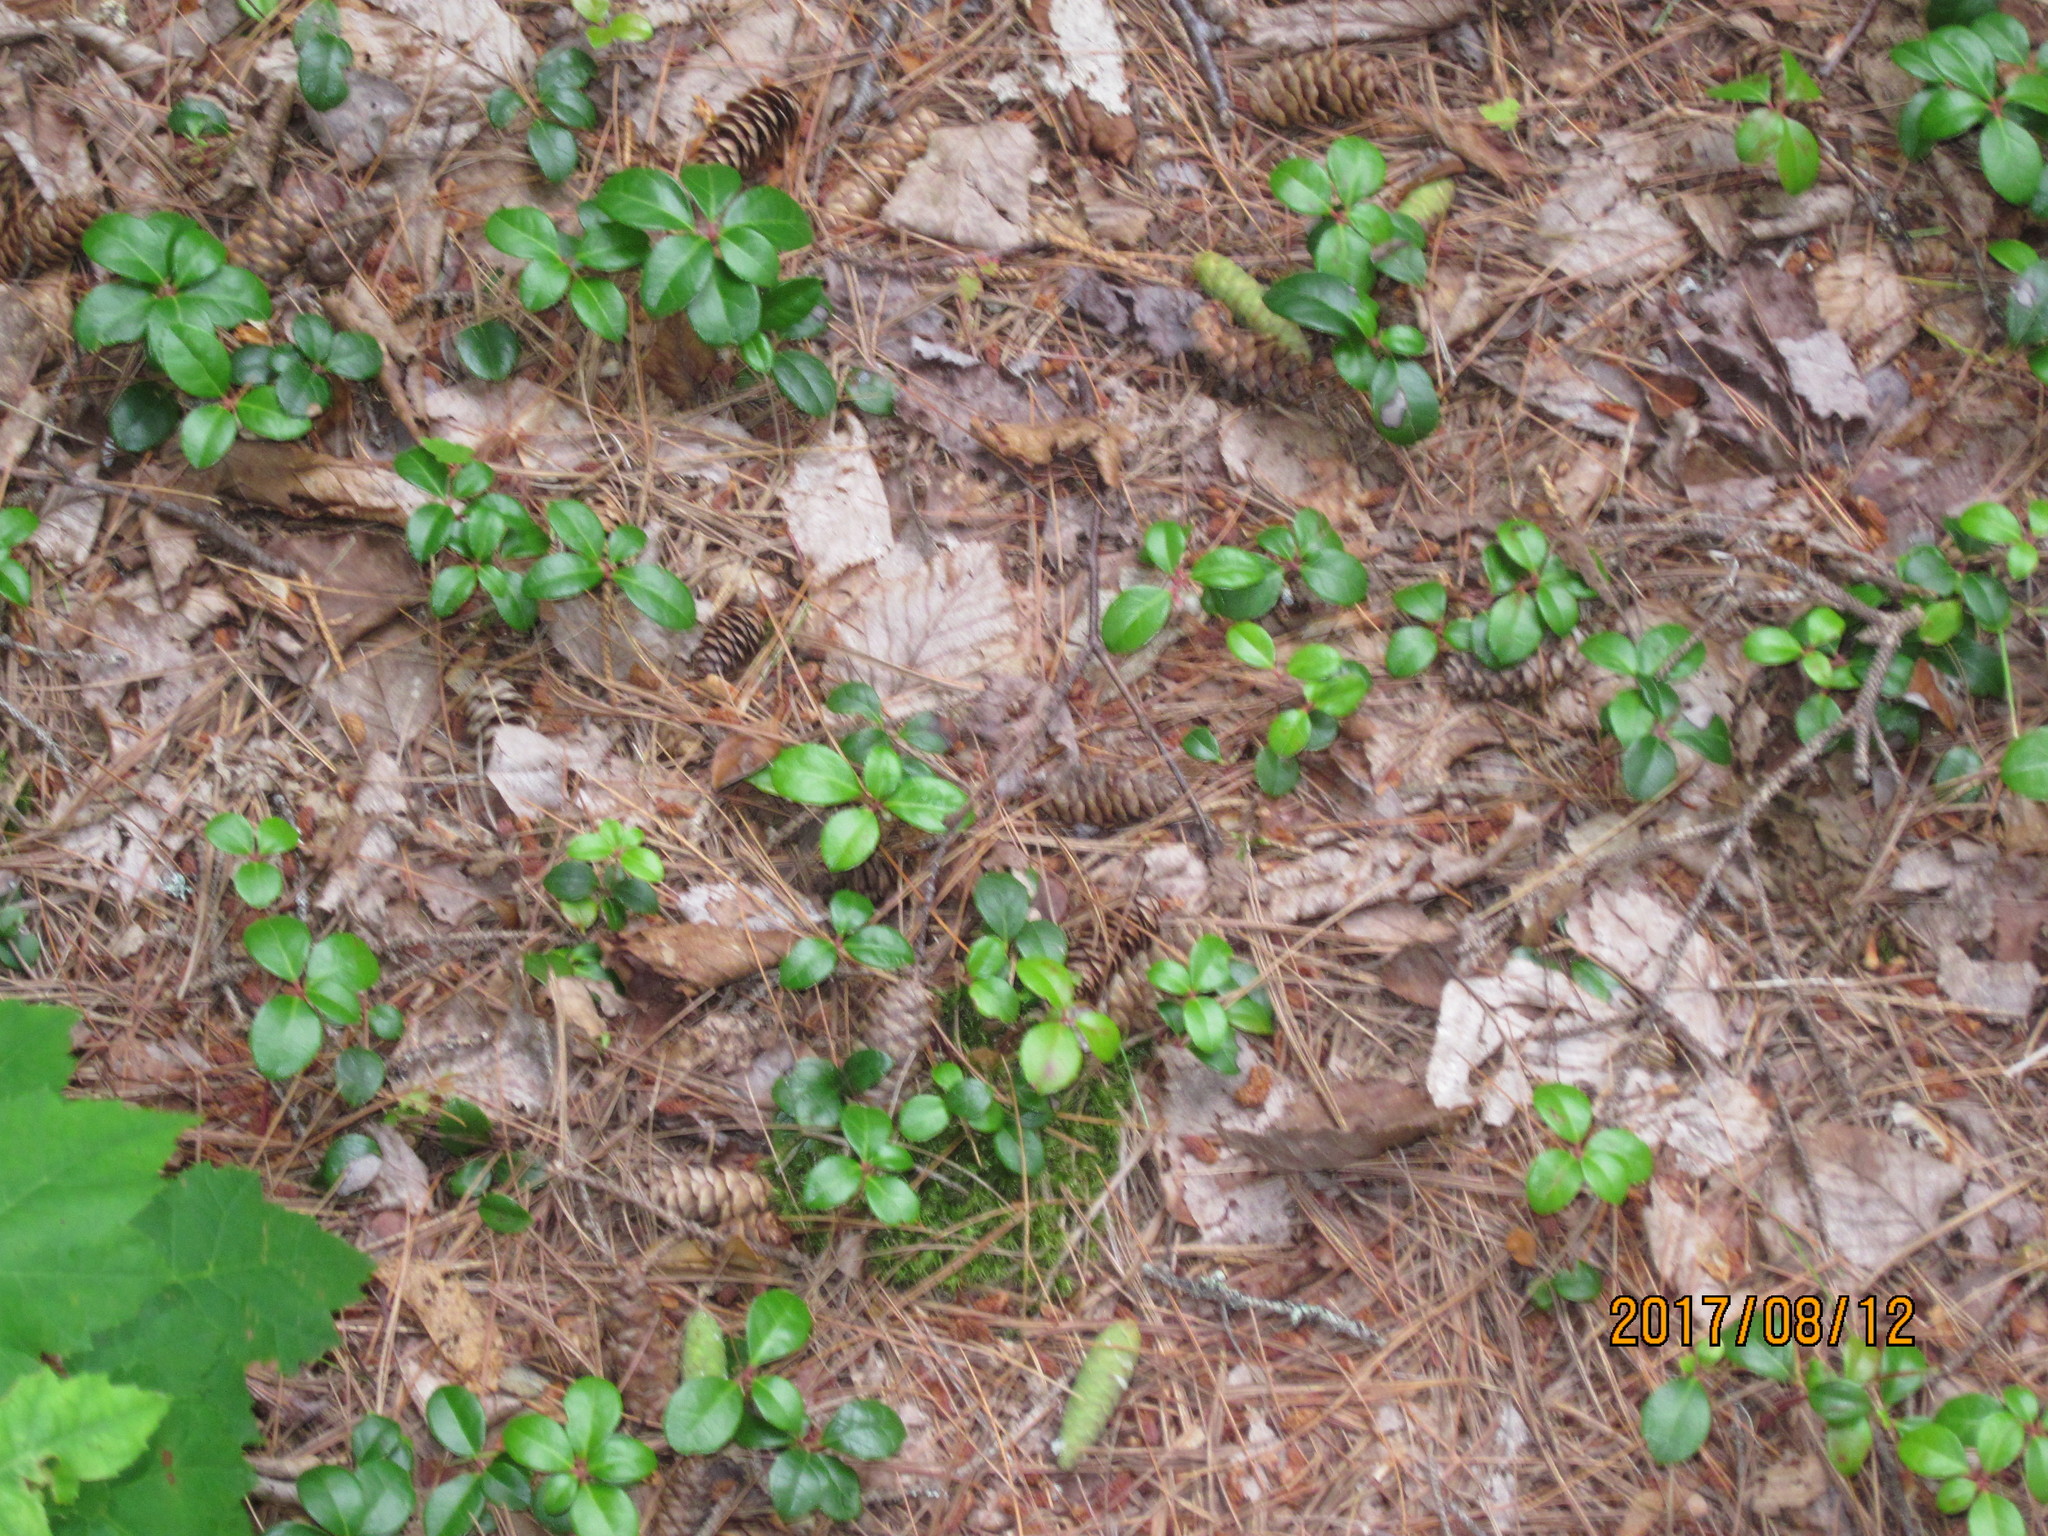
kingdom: Plantae
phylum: Tracheophyta
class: Magnoliopsida
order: Ericales
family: Ericaceae
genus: Gaultheria
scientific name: Gaultheria procumbens
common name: Checkerberry
